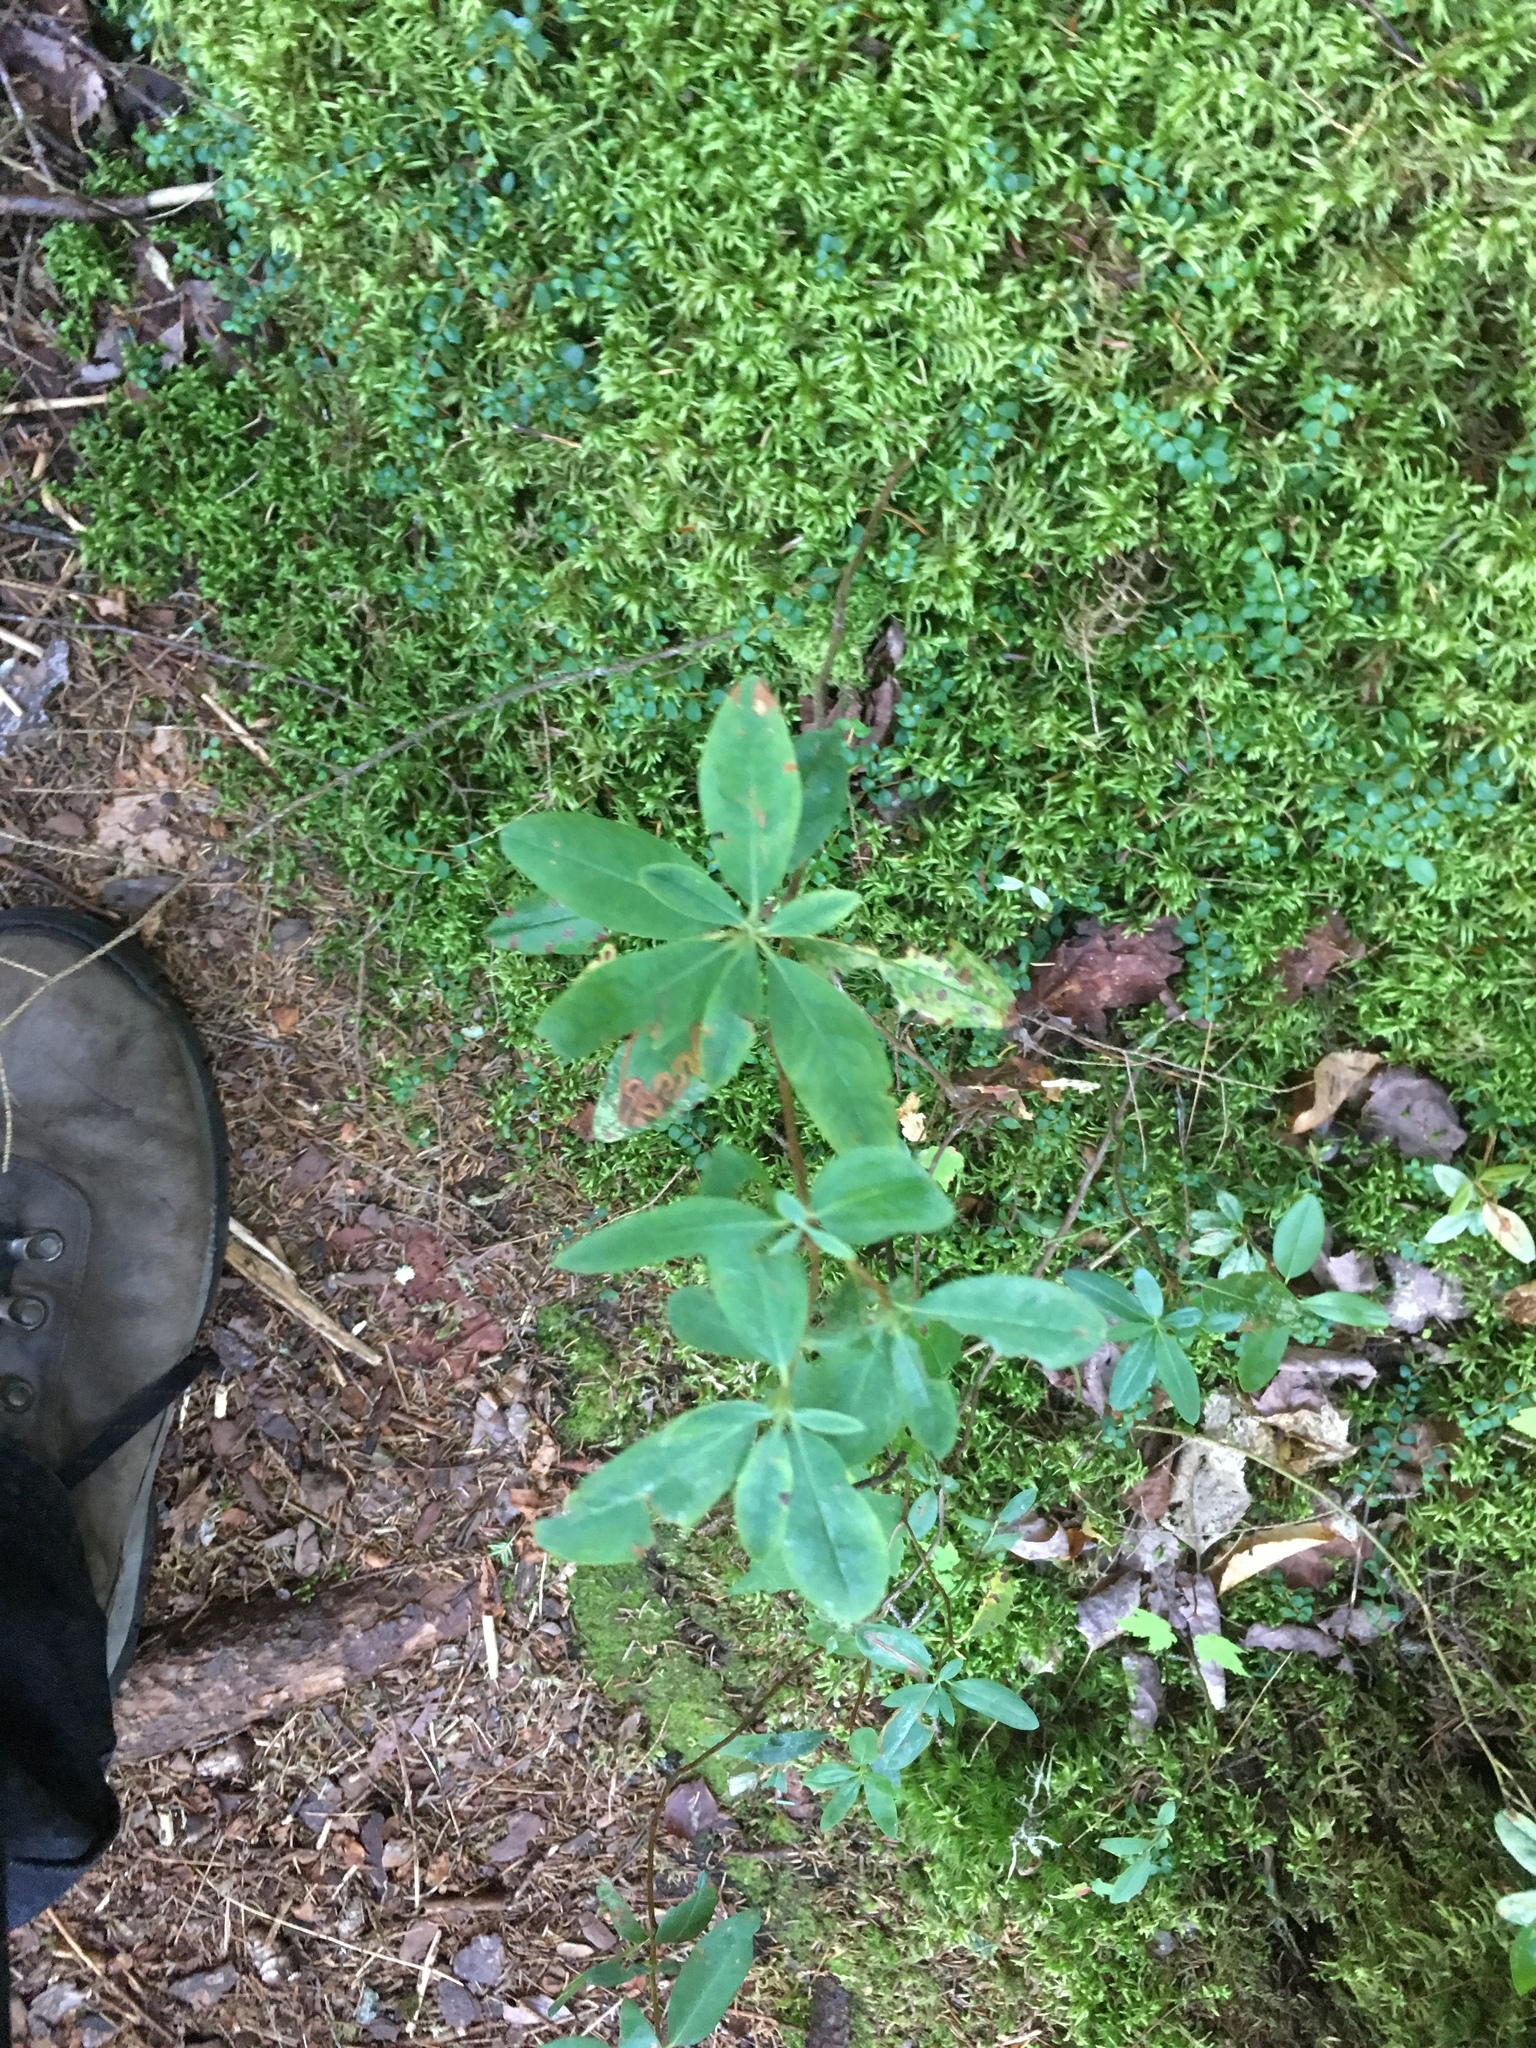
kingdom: Plantae
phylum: Tracheophyta
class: Magnoliopsida
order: Ericales
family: Ericaceae
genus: Kalmia
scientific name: Kalmia angustifolia
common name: Sheep-laurel
